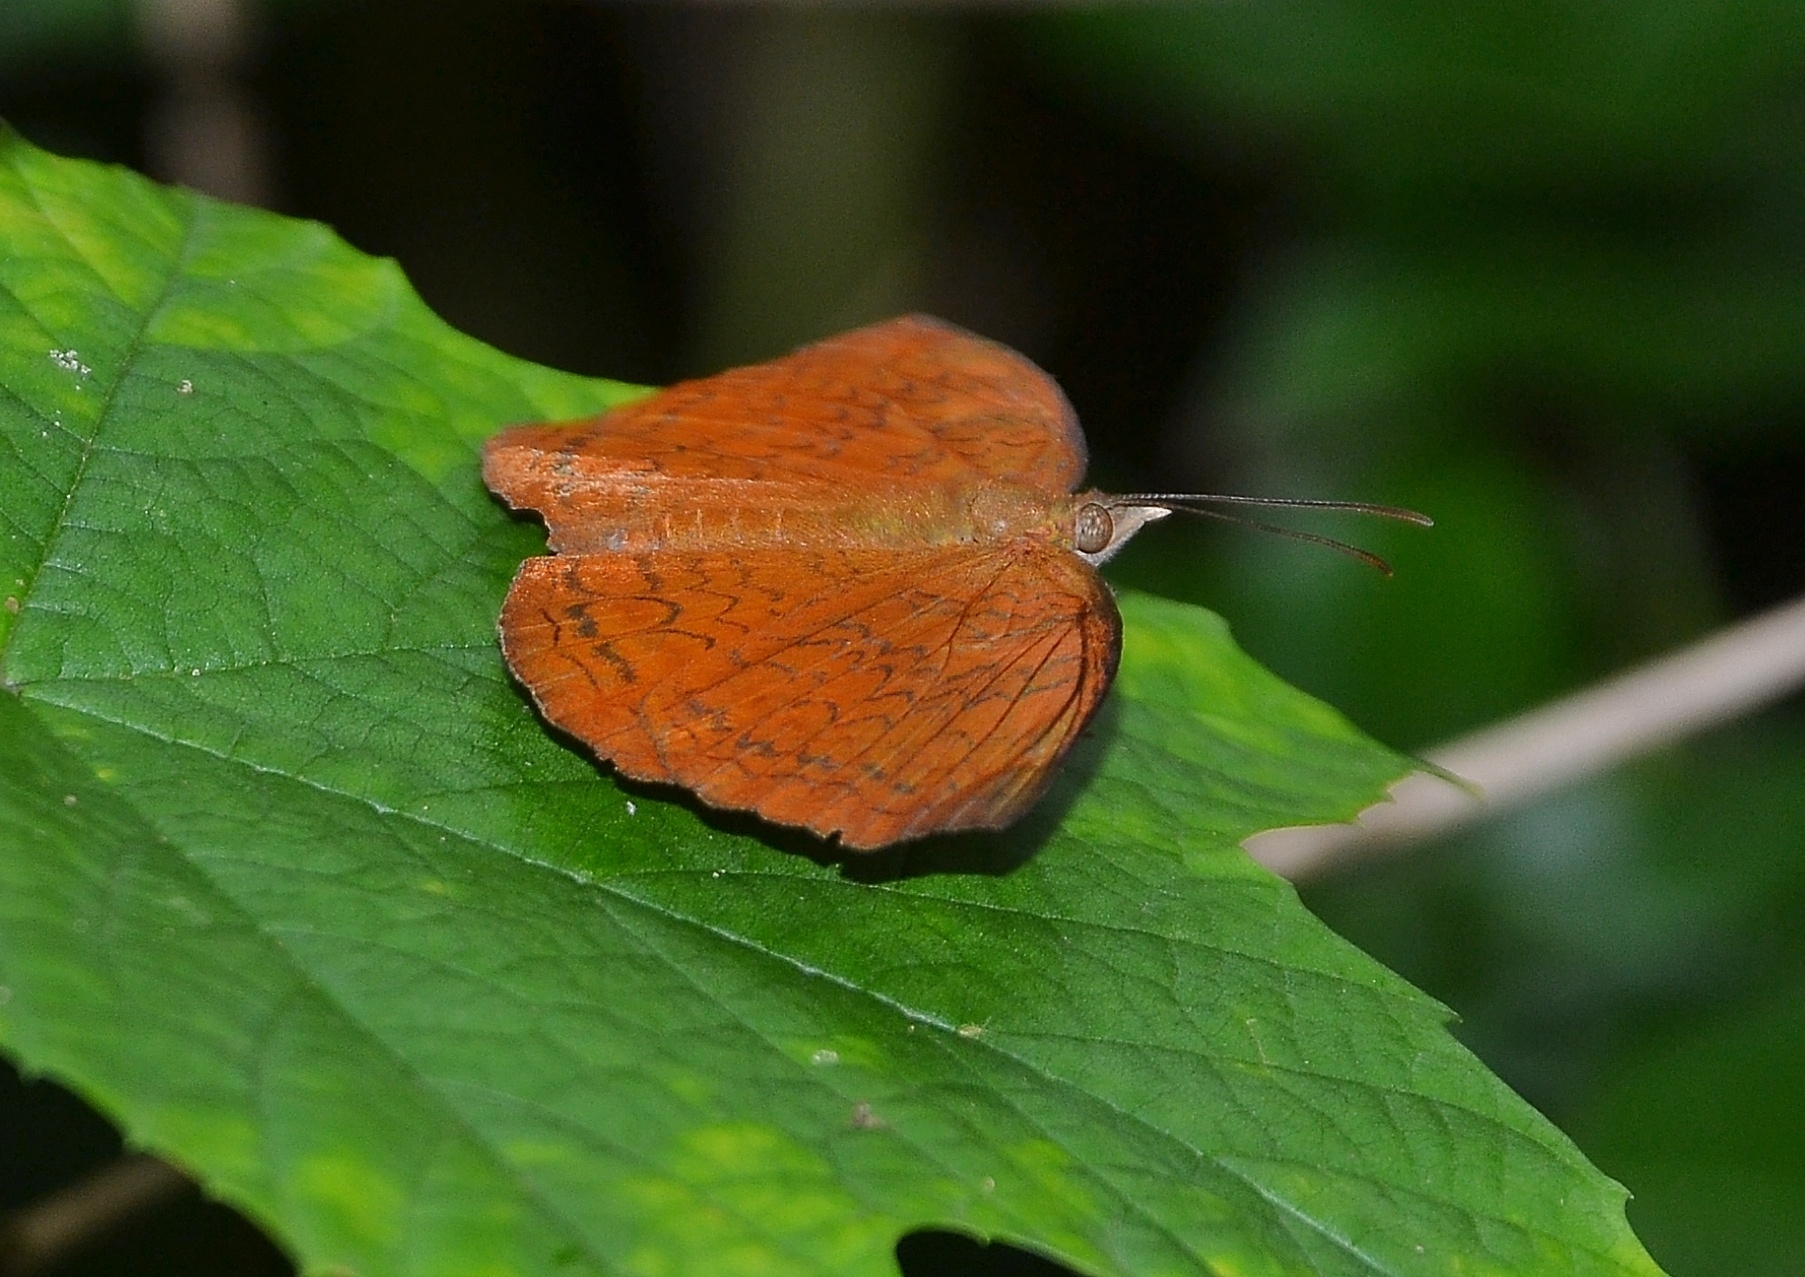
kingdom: Animalia
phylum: Arthropoda
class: Insecta
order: Lepidoptera
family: Nymphalidae
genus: Ariadne
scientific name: Ariadne ariadne
